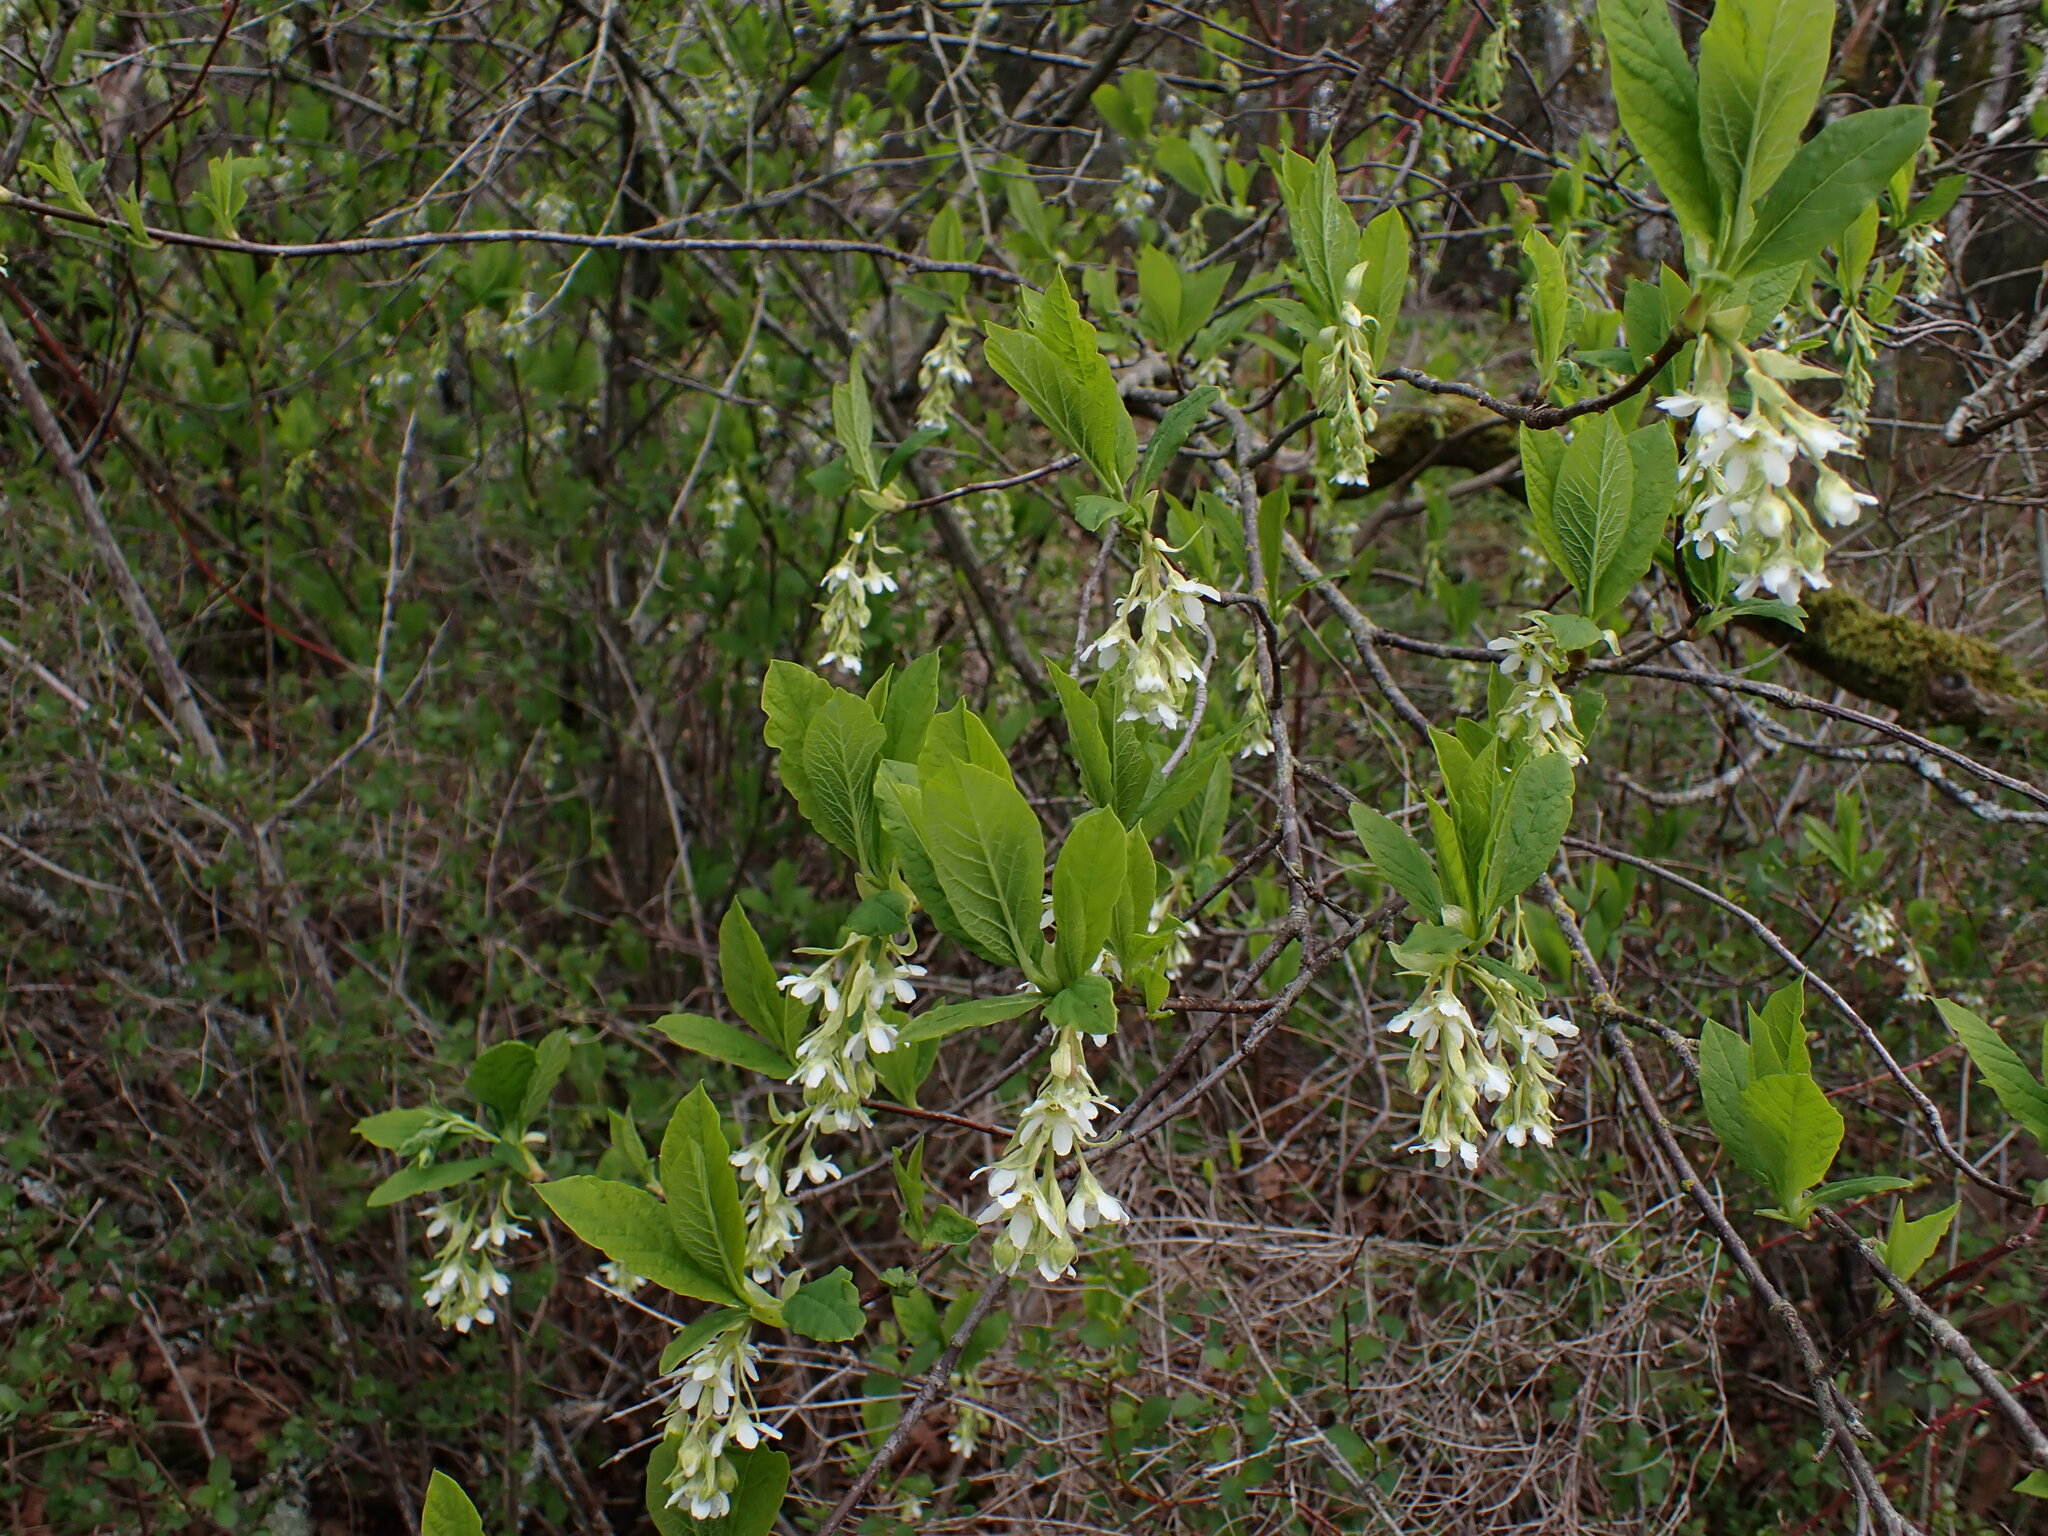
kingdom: Plantae
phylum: Tracheophyta
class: Magnoliopsida
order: Rosales
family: Rosaceae
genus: Oemleria
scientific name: Oemleria cerasiformis
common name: Osoberry
